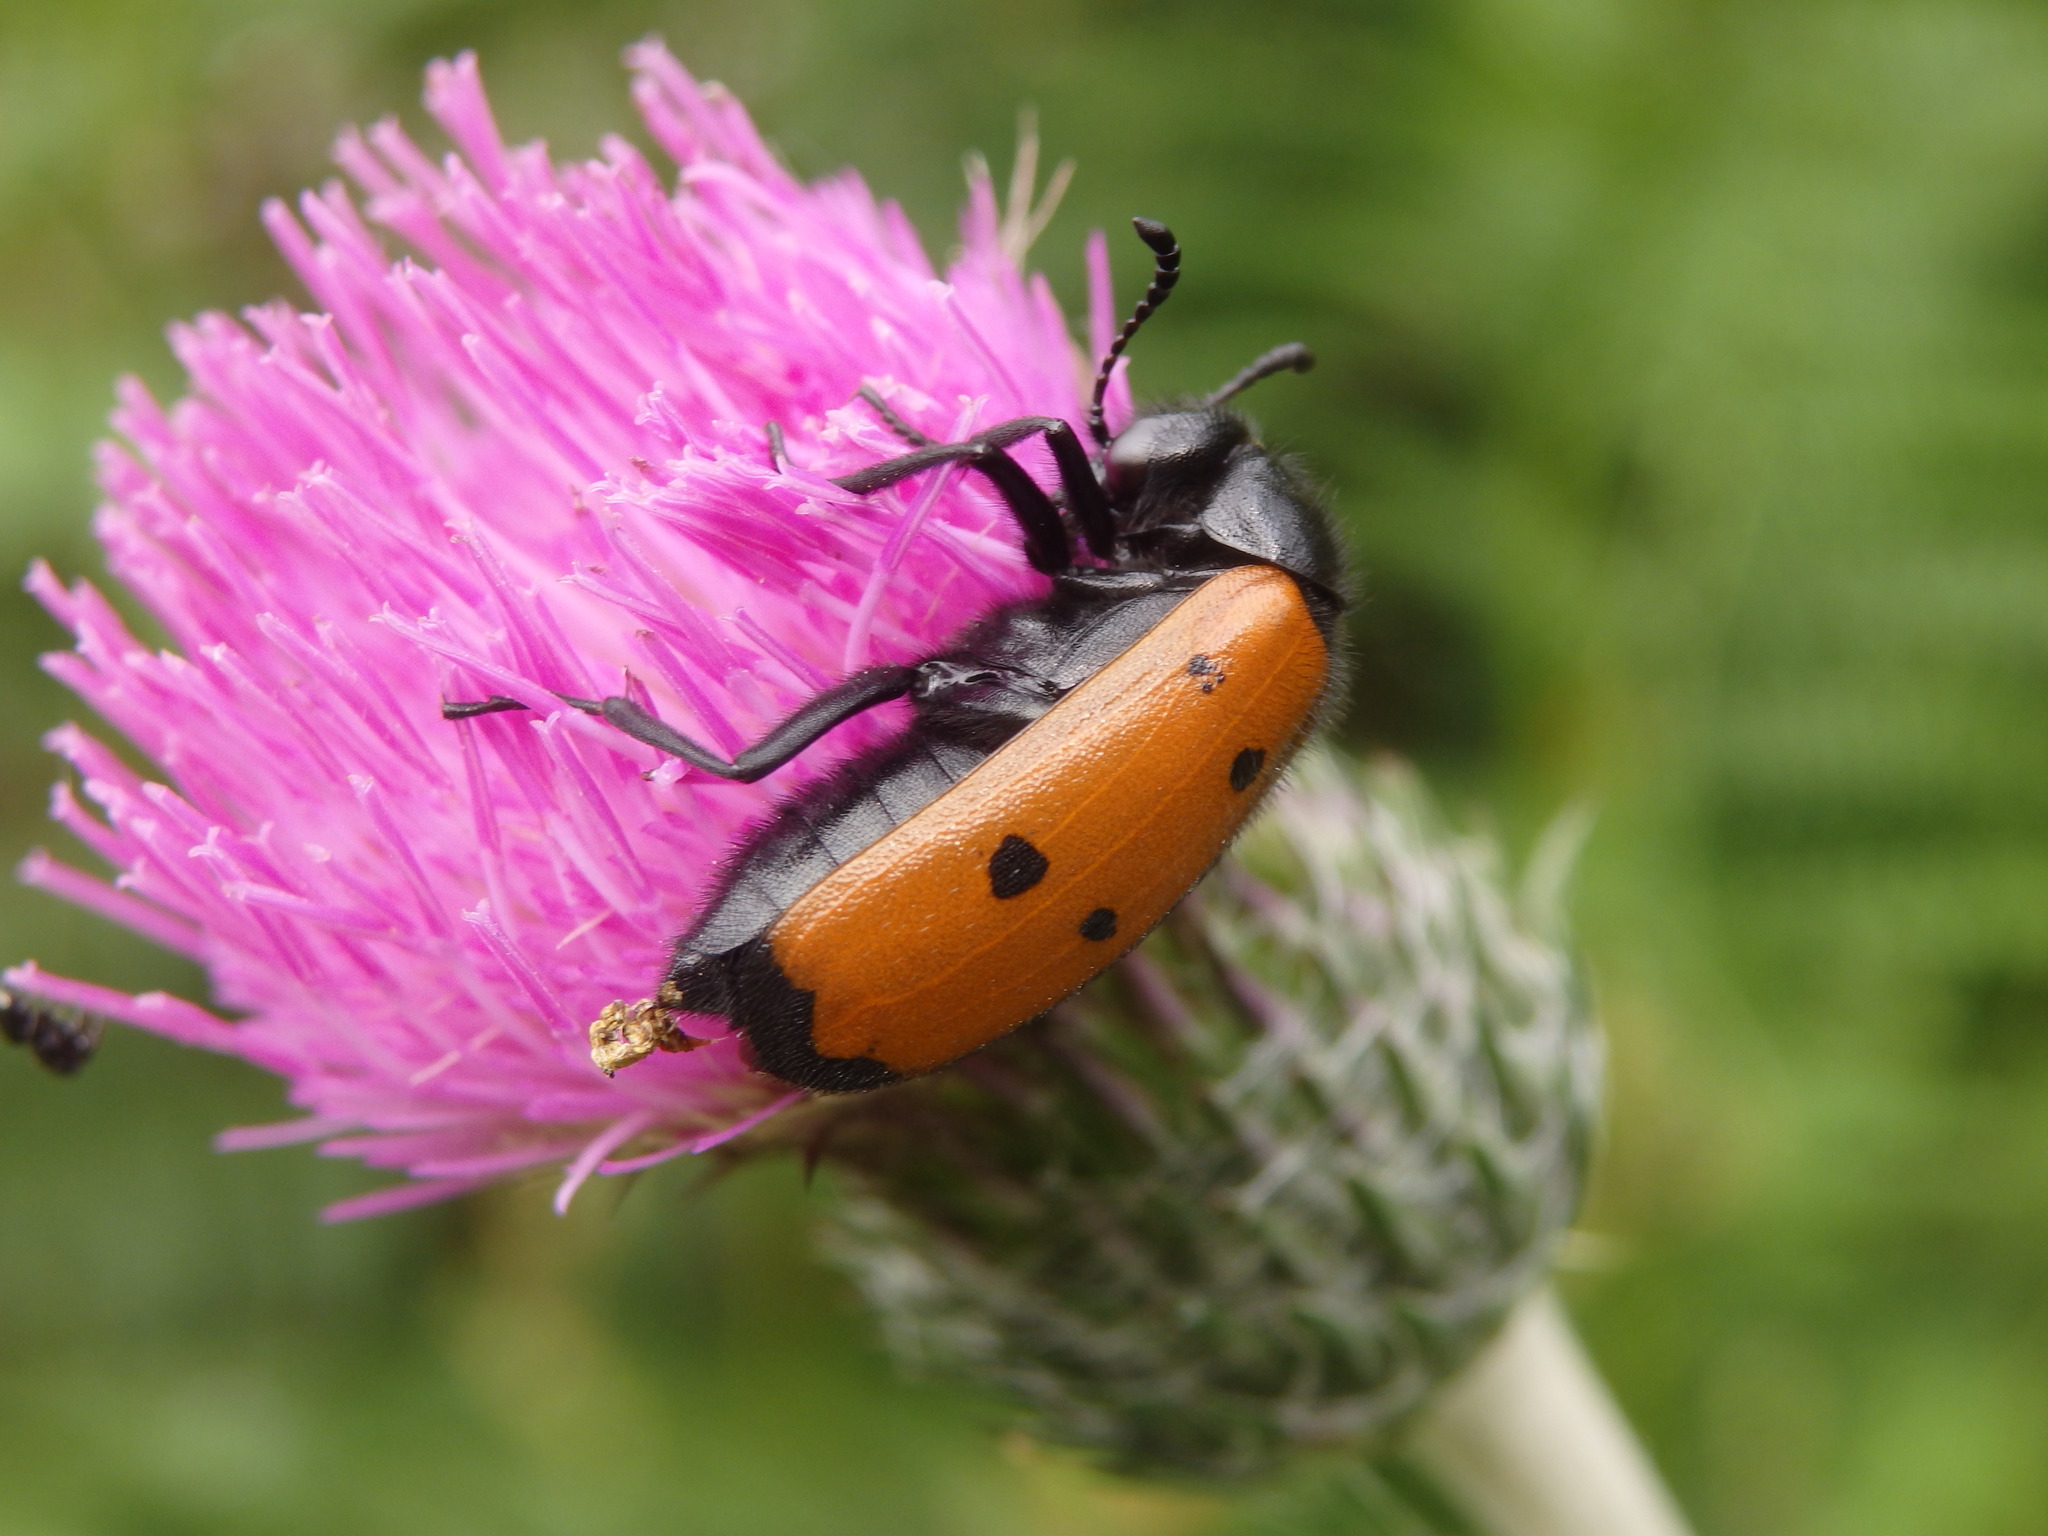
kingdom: Animalia
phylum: Arthropoda
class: Insecta
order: Coleoptera
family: Meloidae
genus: Mylabris
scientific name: Mylabris quadripunctata
